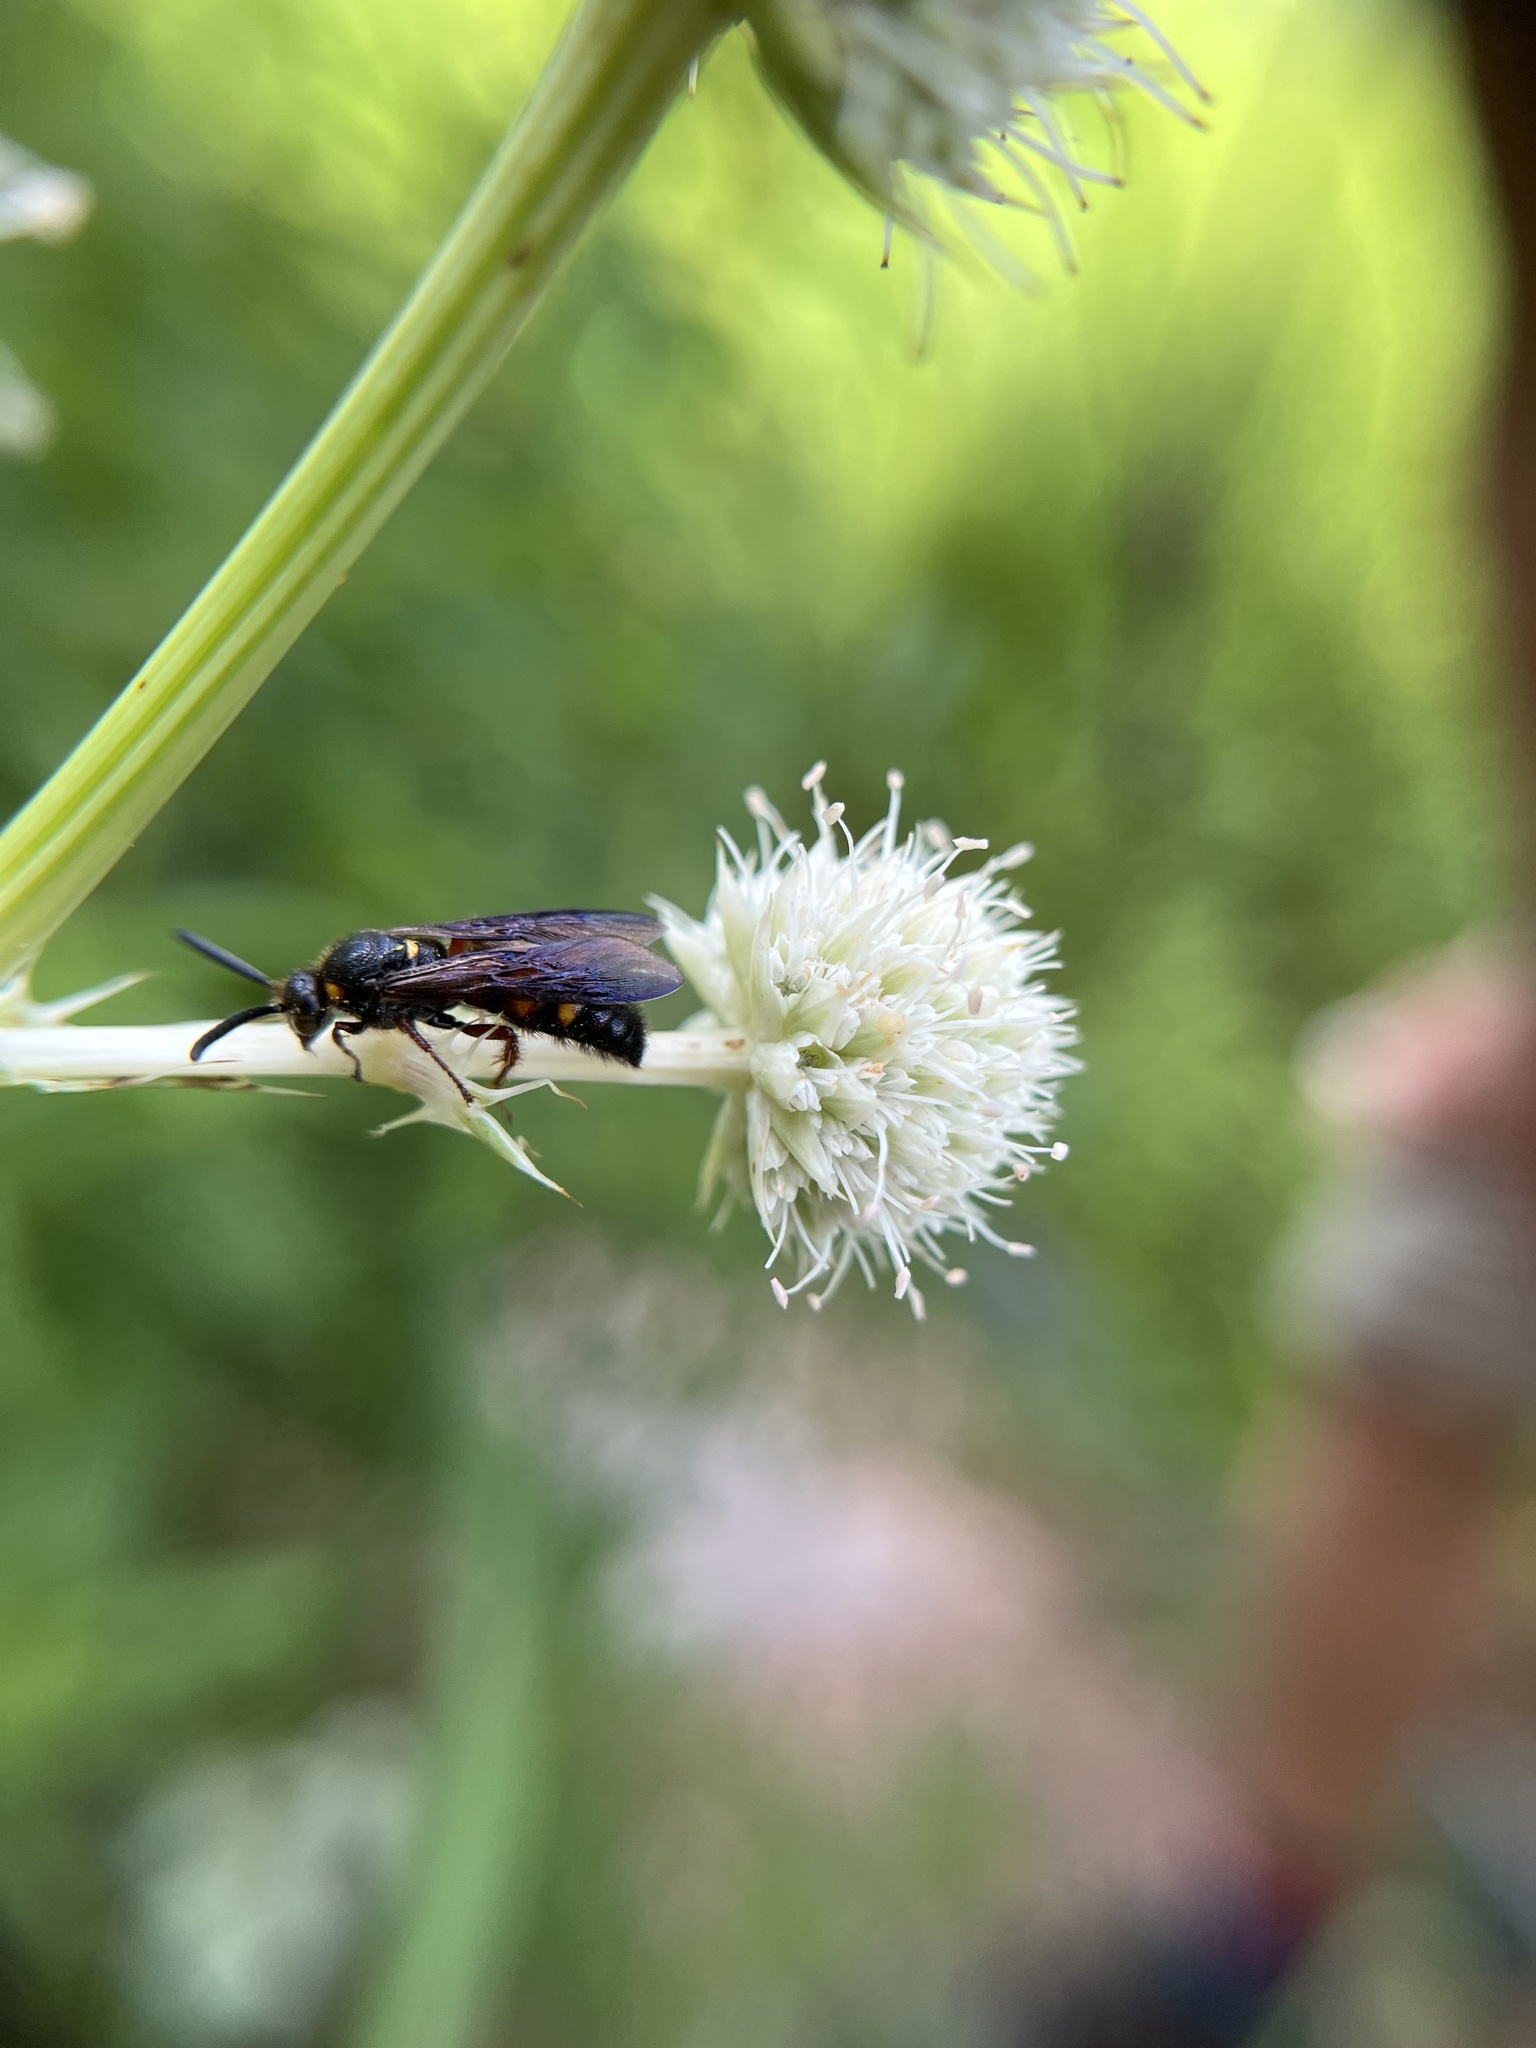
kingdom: Animalia
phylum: Arthropoda
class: Insecta
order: Hymenoptera
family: Scoliidae
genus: Scolia
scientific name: Scolia nobilitata
